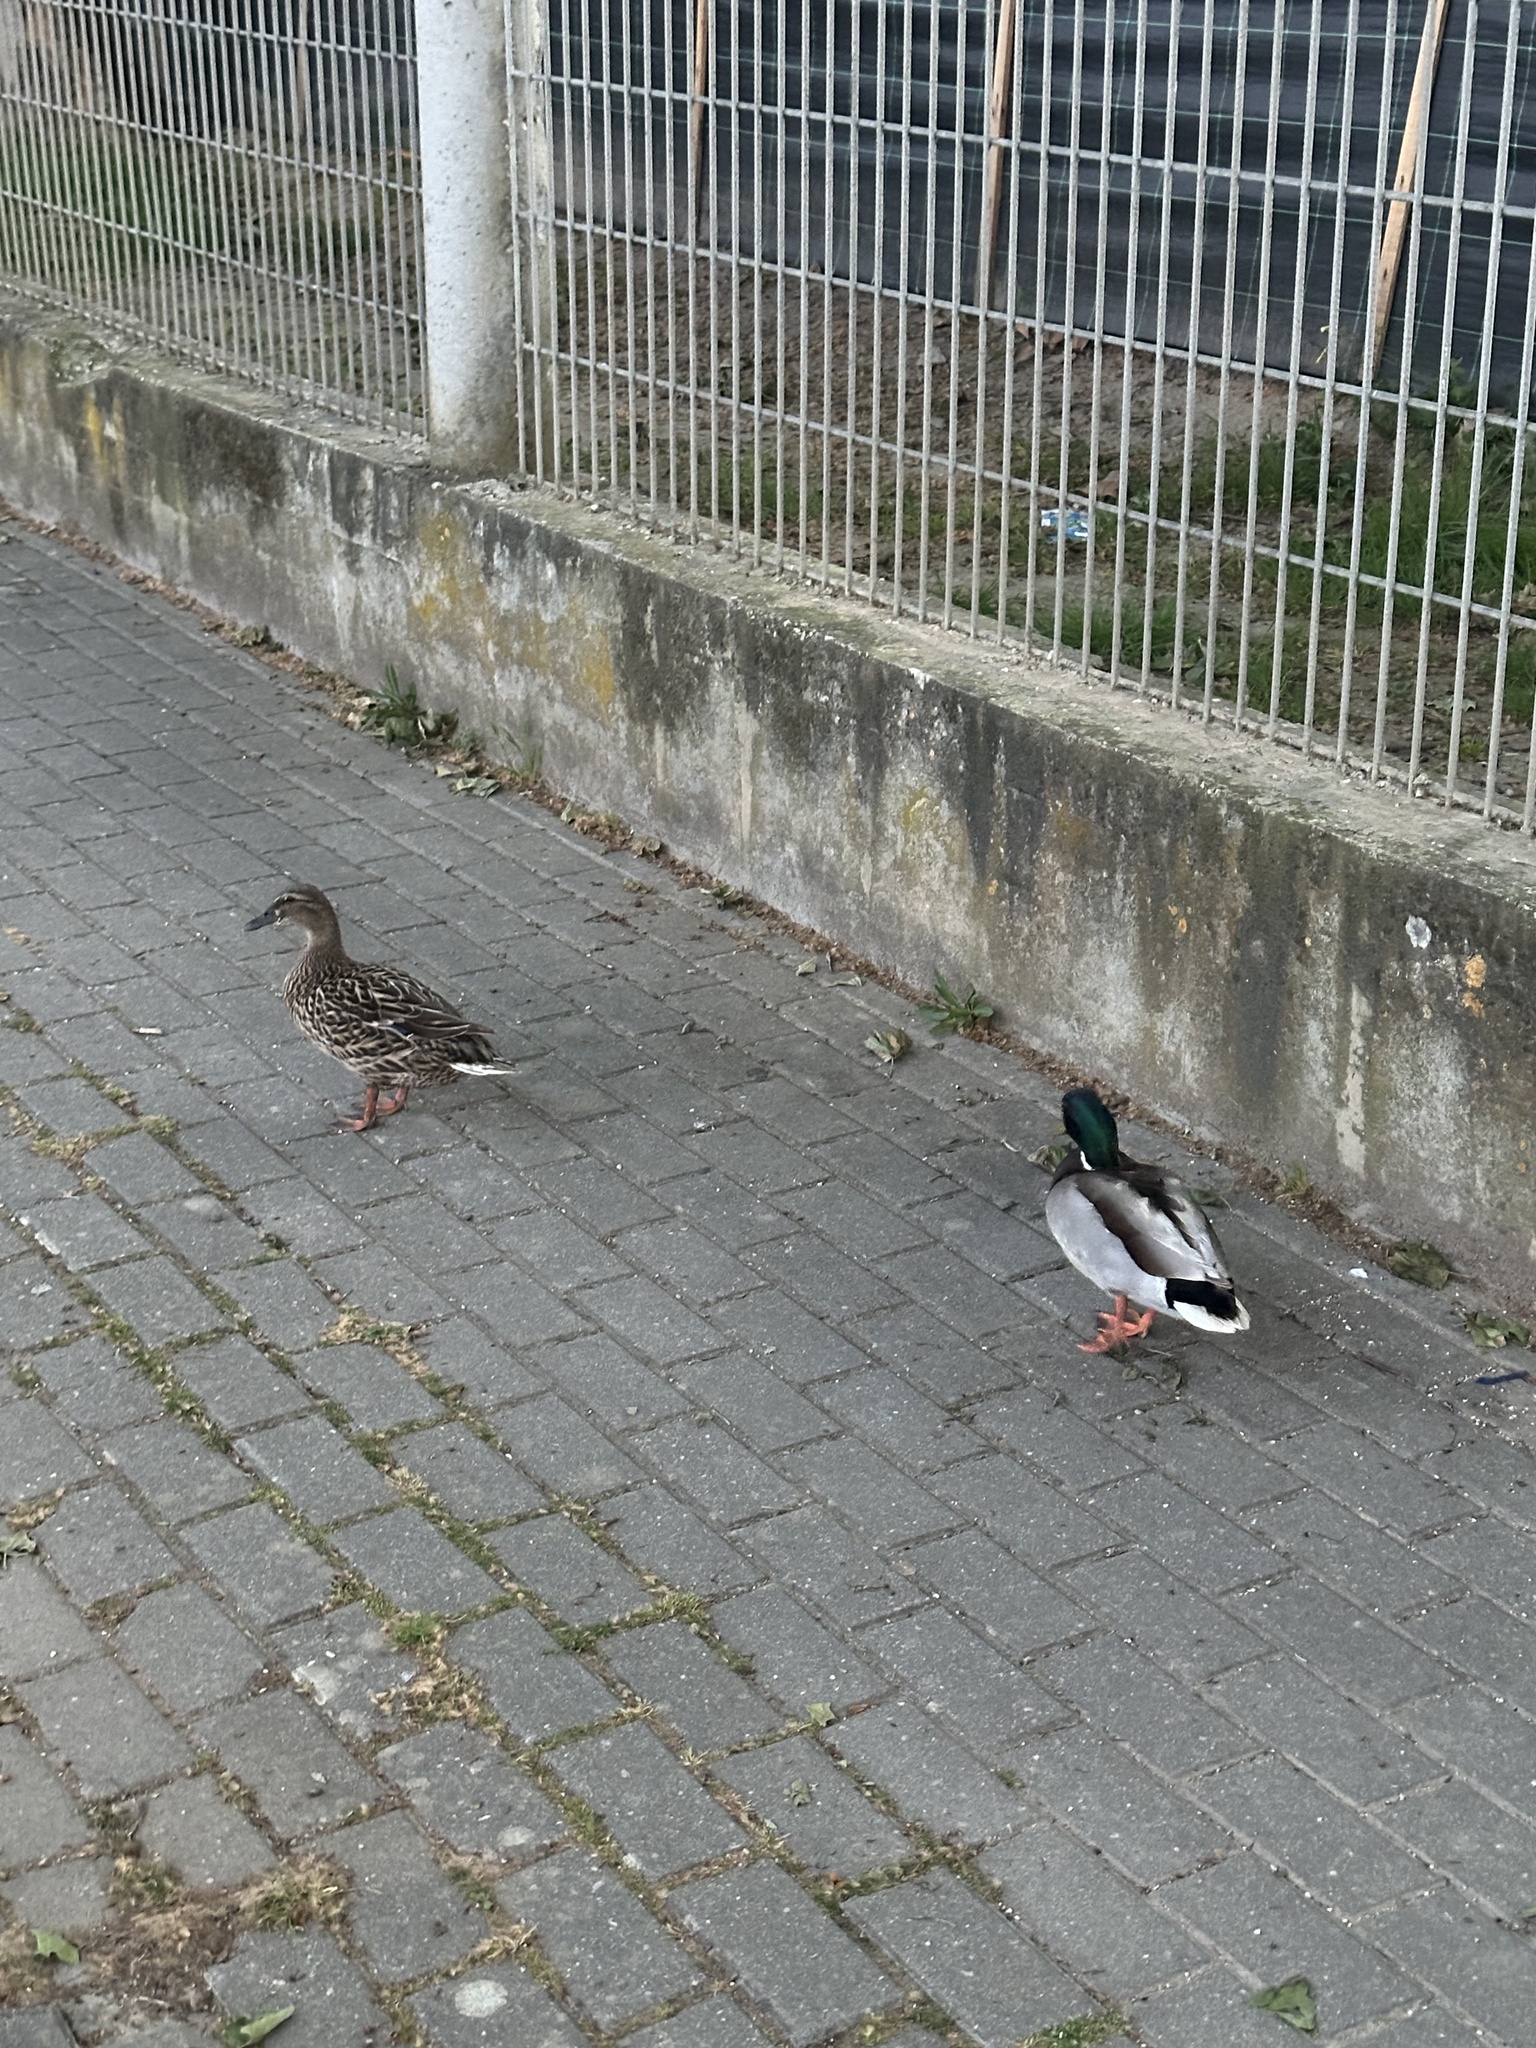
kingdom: Animalia
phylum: Chordata
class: Aves
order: Anseriformes
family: Anatidae
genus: Anas
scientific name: Anas platyrhynchos
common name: Mallard
